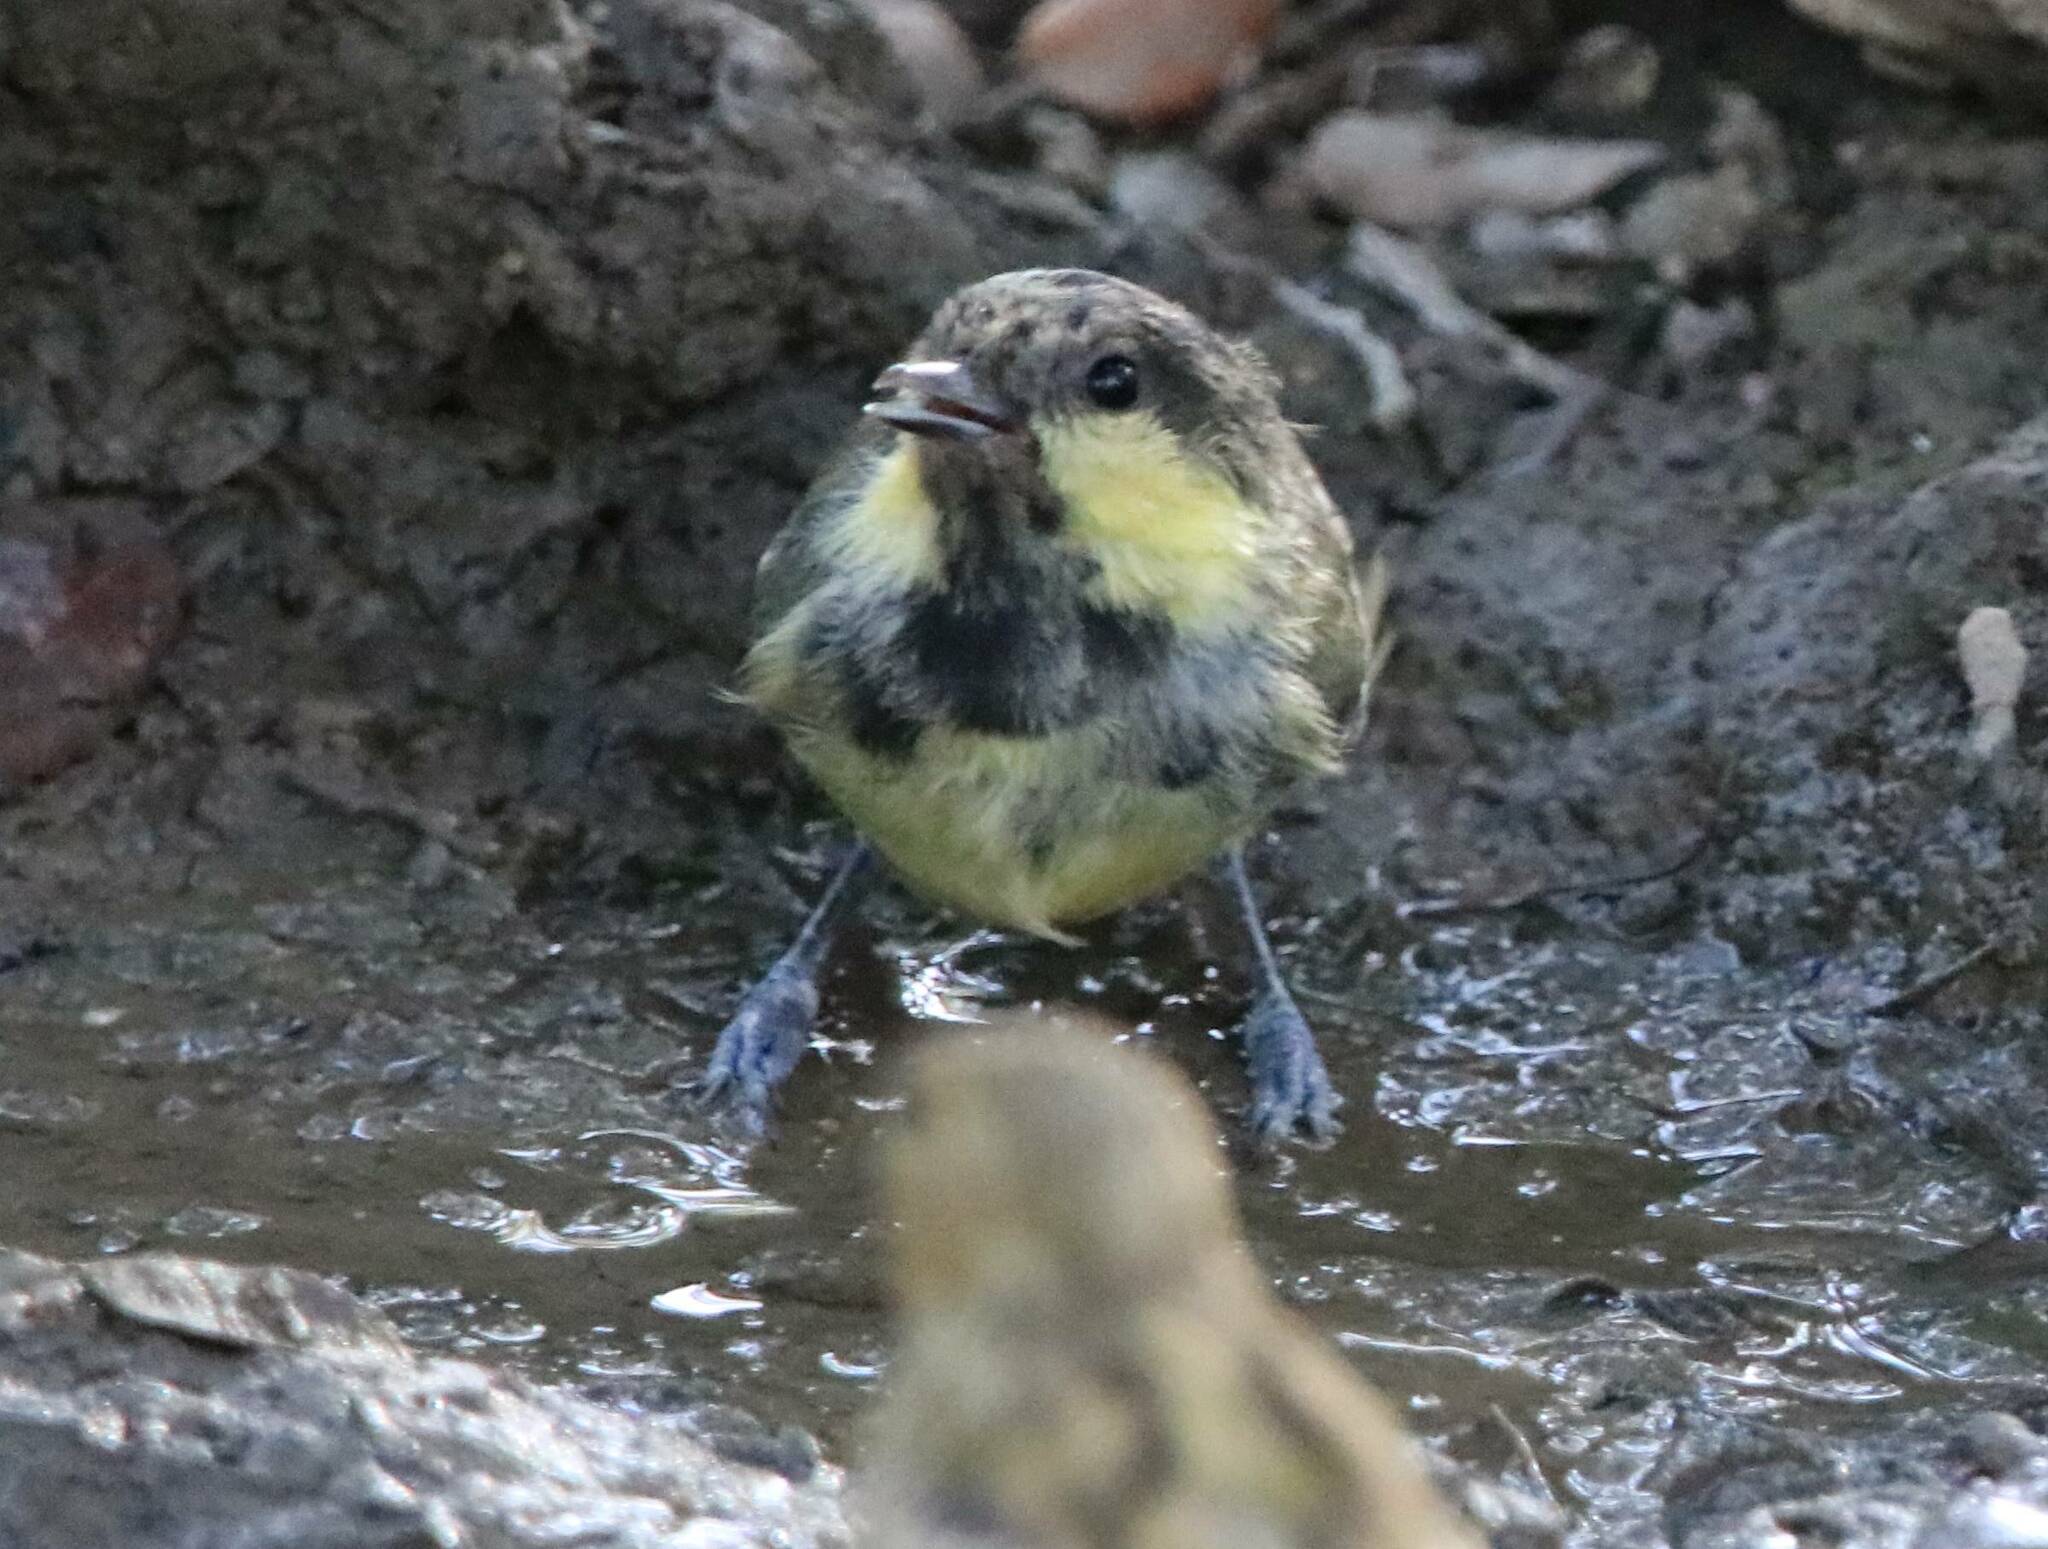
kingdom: Animalia
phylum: Chordata
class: Aves
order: Passeriformes
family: Paridae
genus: Periparus
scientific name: Periparus ater
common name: Coal tit
